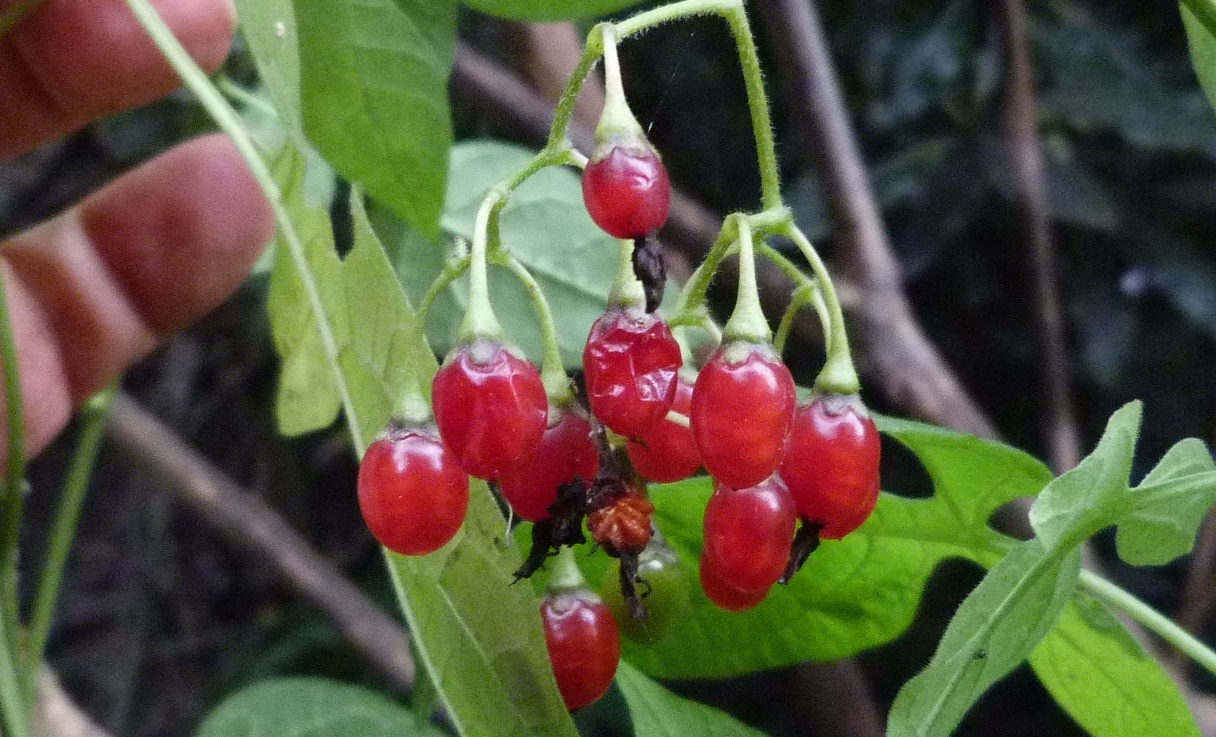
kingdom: Plantae
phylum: Tracheophyta
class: Magnoliopsida
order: Solanales
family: Solanaceae
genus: Solanum
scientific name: Solanum dulcamara
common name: Climbing nightshade
